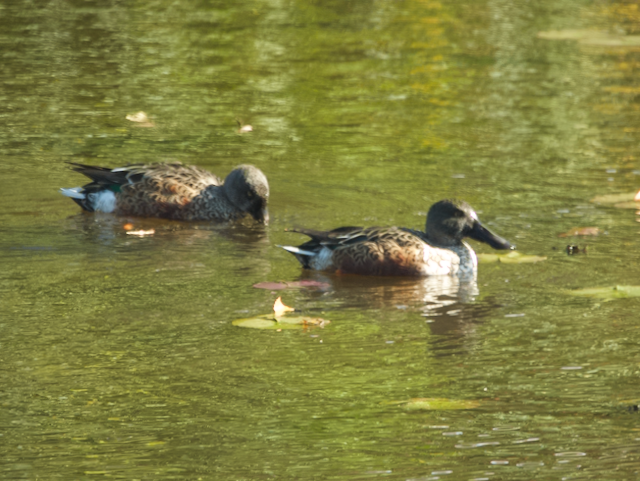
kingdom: Animalia
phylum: Chordata
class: Aves
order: Anseriformes
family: Anatidae
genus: Spatula
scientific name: Spatula clypeata
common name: Northern shoveler
